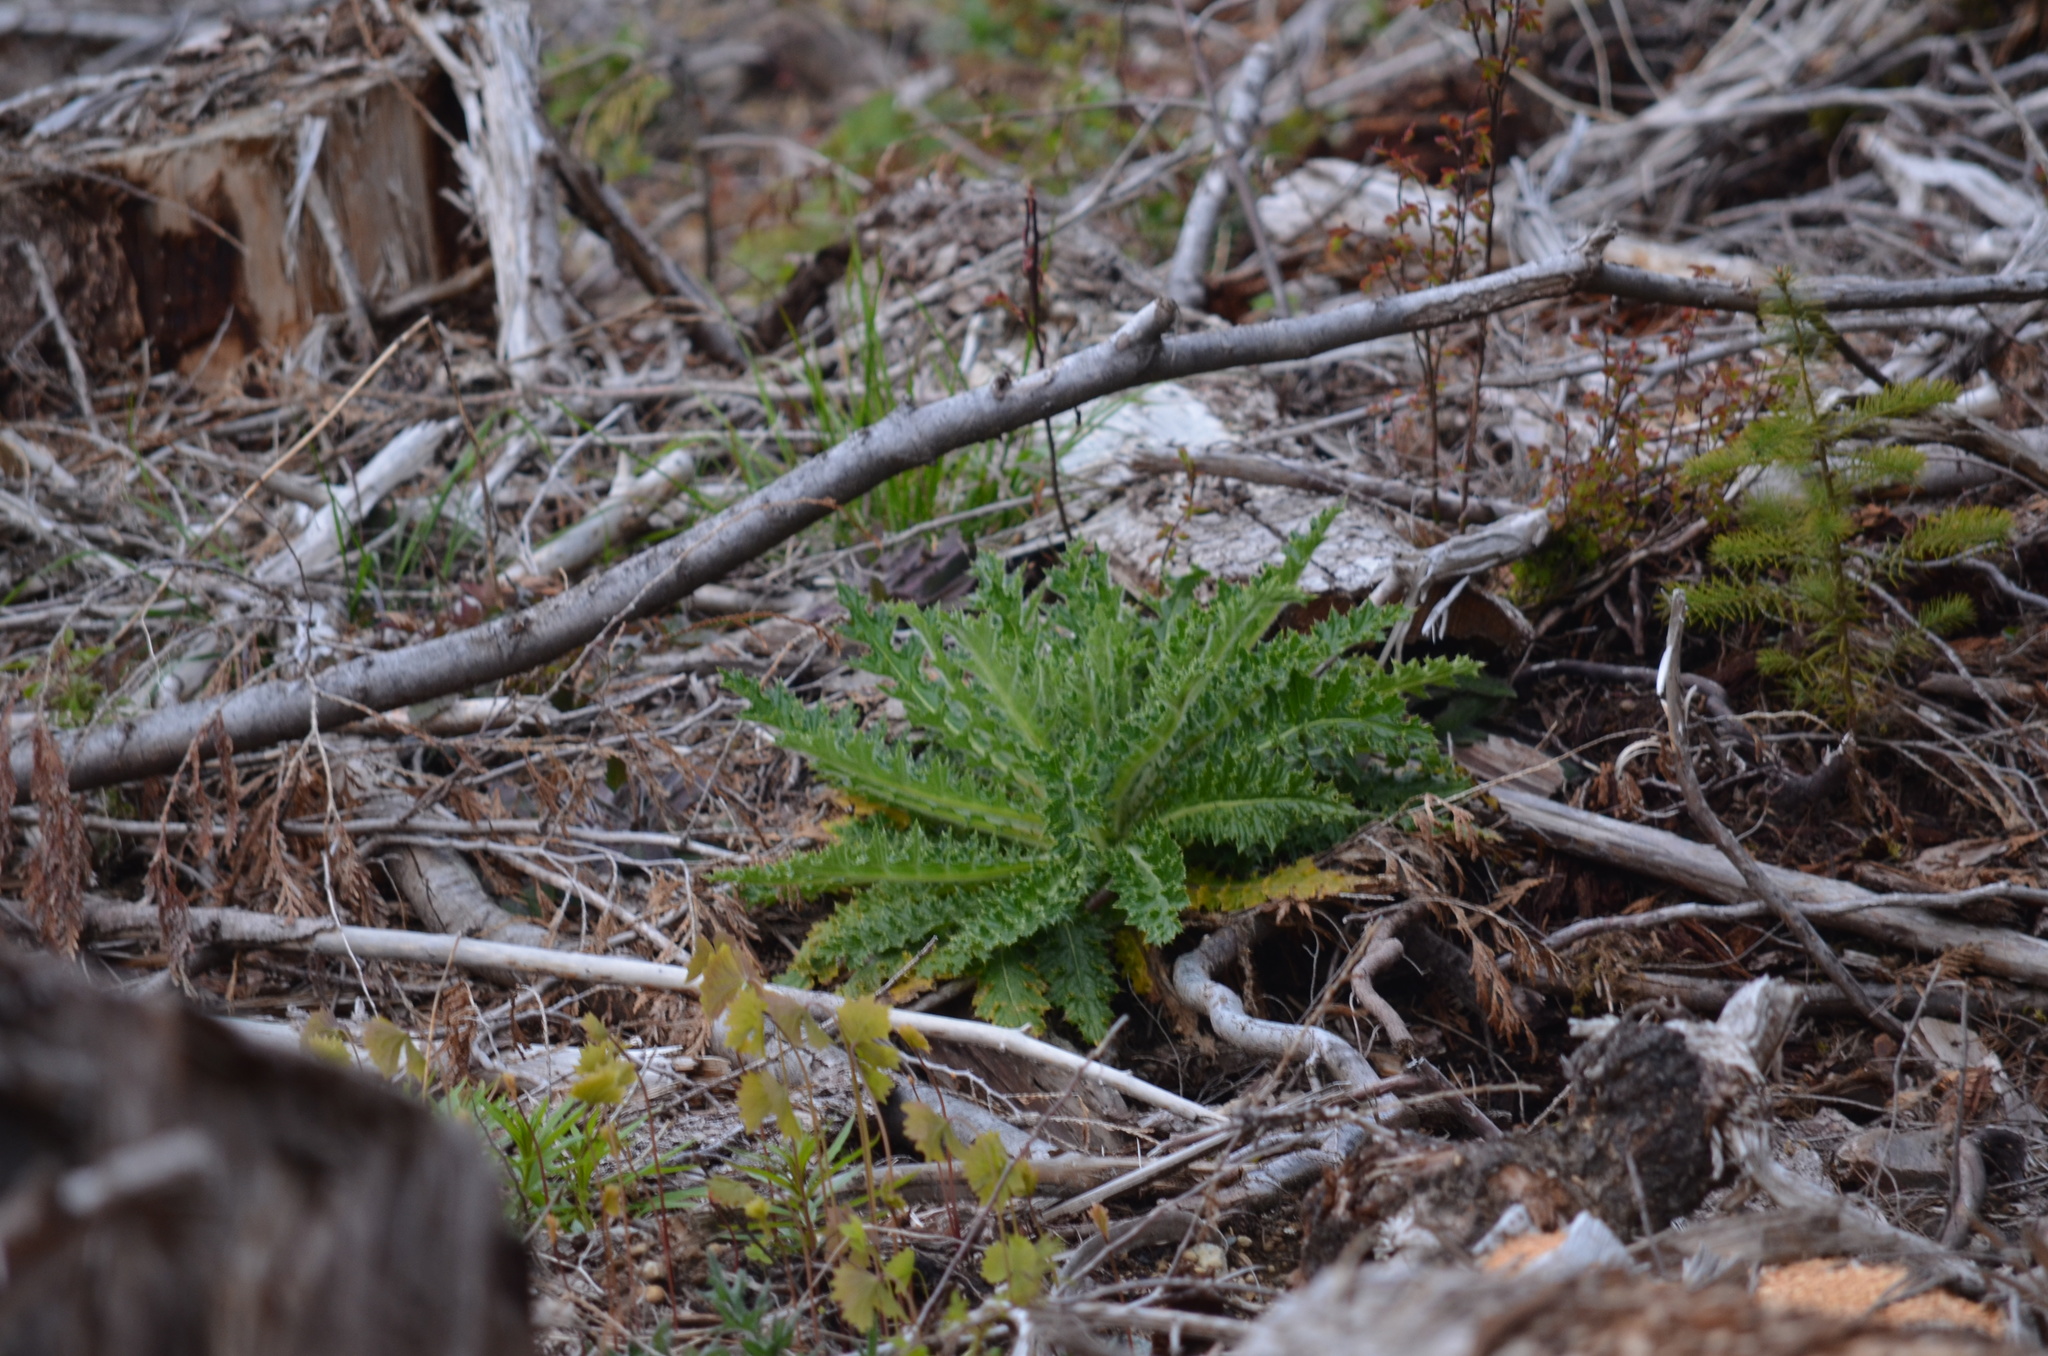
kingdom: Plantae
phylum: Tracheophyta
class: Magnoliopsida
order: Asterales
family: Asteraceae
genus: Cirsium
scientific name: Cirsium brevistylum
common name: Indian thistle
